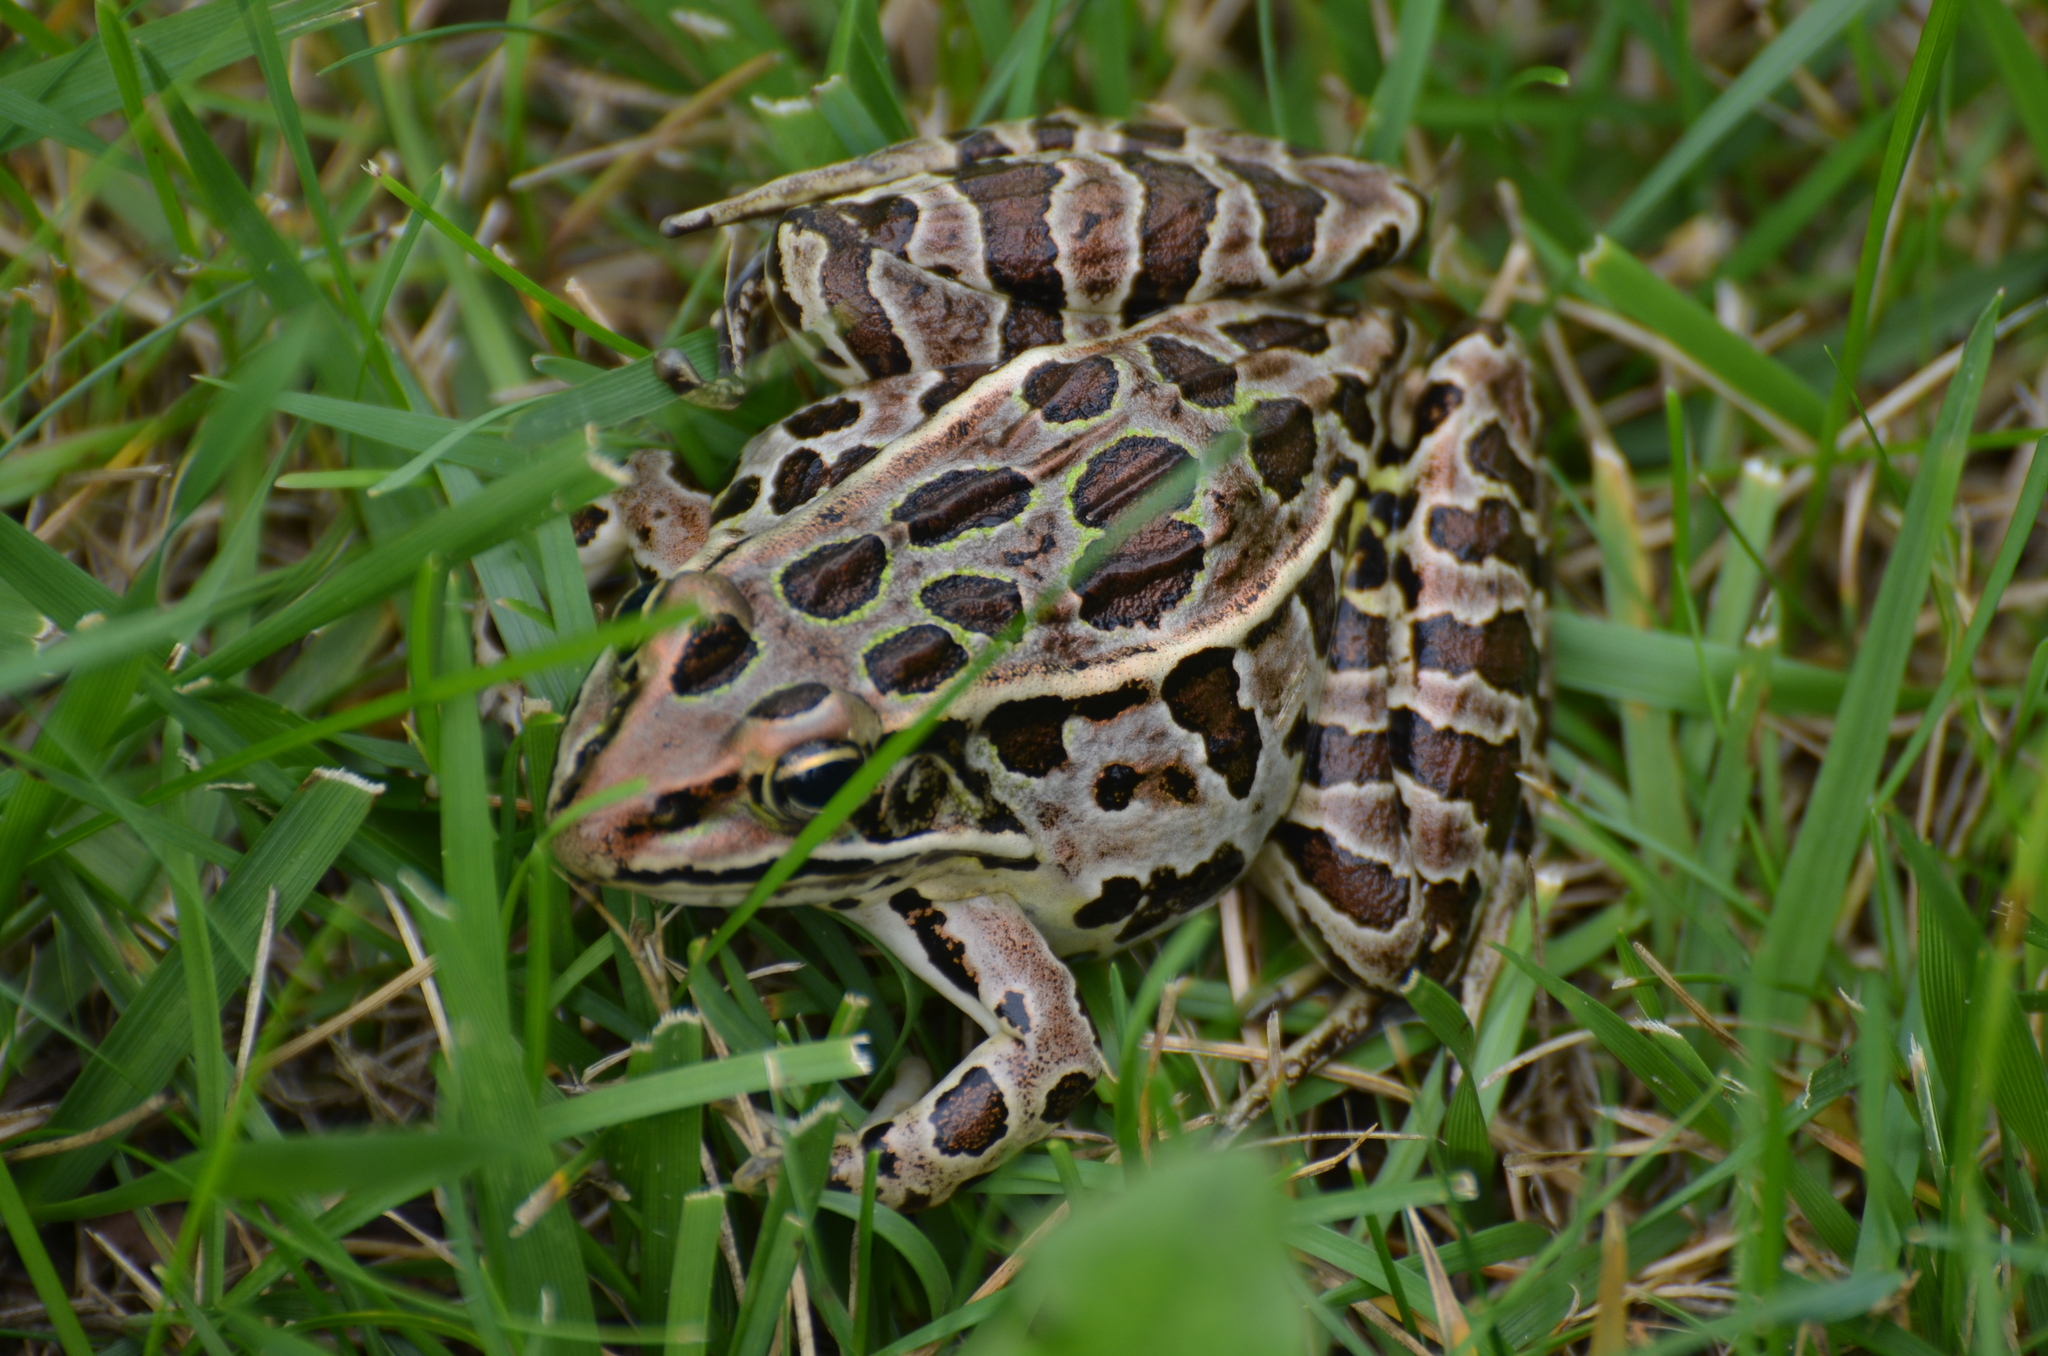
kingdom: Animalia
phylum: Chordata
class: Amphibia
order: Anura
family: Ranidae
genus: Lithobates
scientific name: Lithobates pipiens
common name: Northern leopard frog
